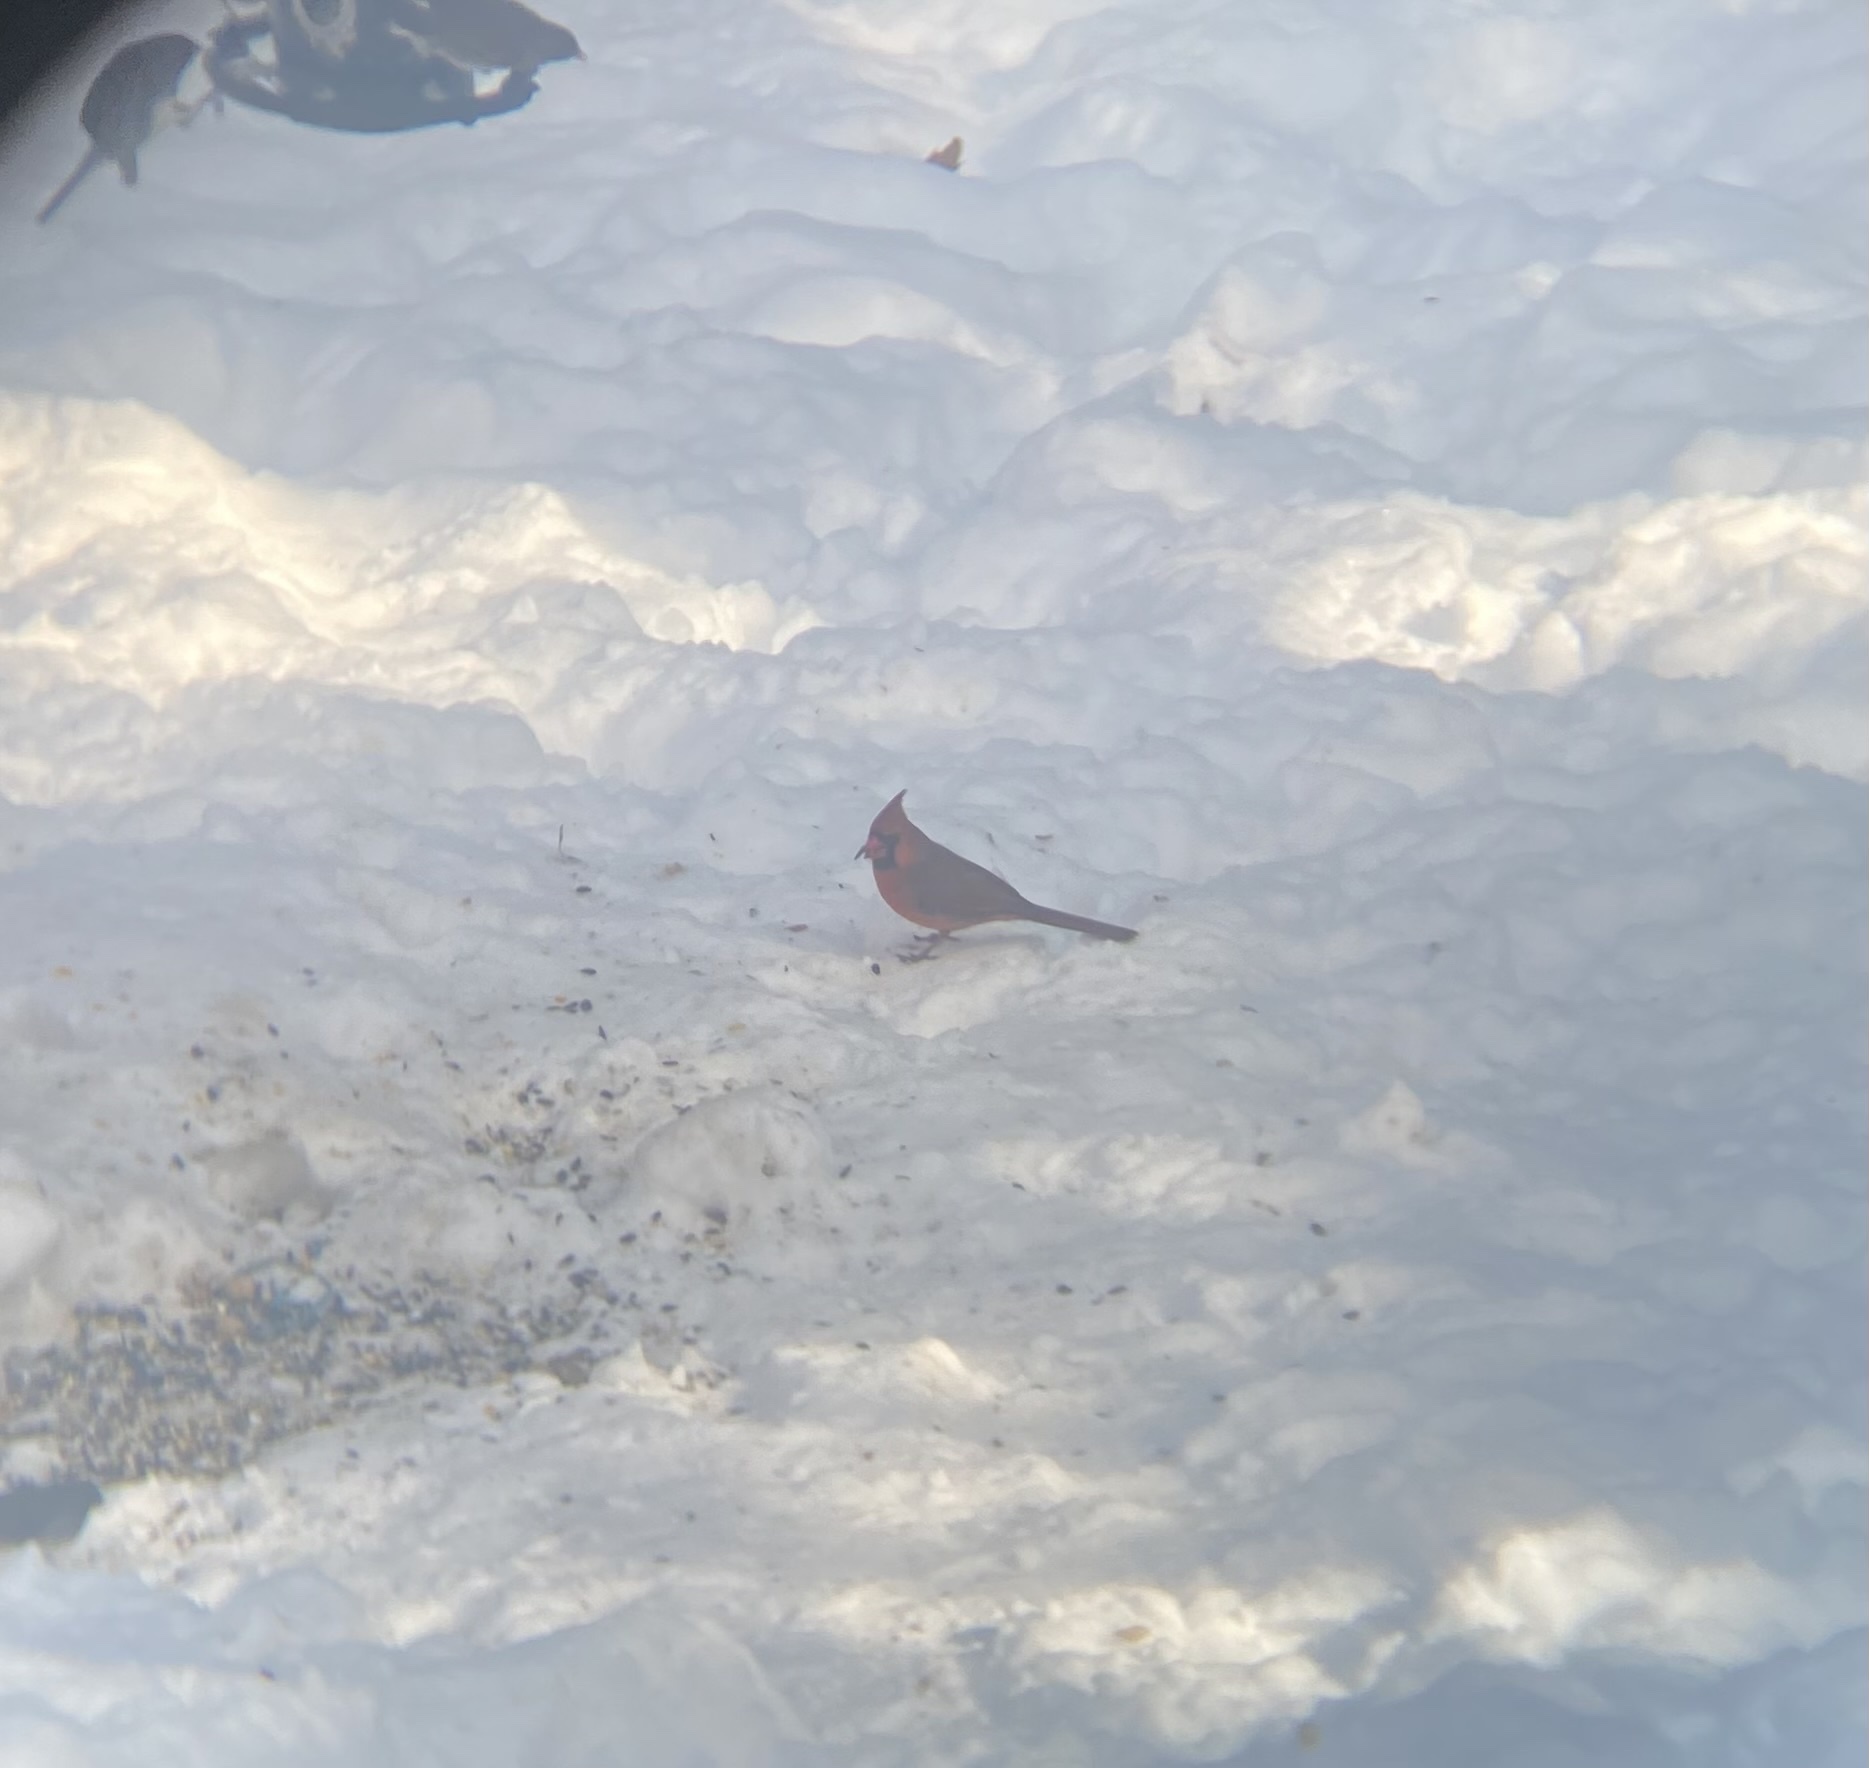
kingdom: Animalia
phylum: Chordata
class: Aves
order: Passeriformes
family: Cardinalidae
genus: Cardinalis
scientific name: Cardinalis cardinalis
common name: Northern cardinal
